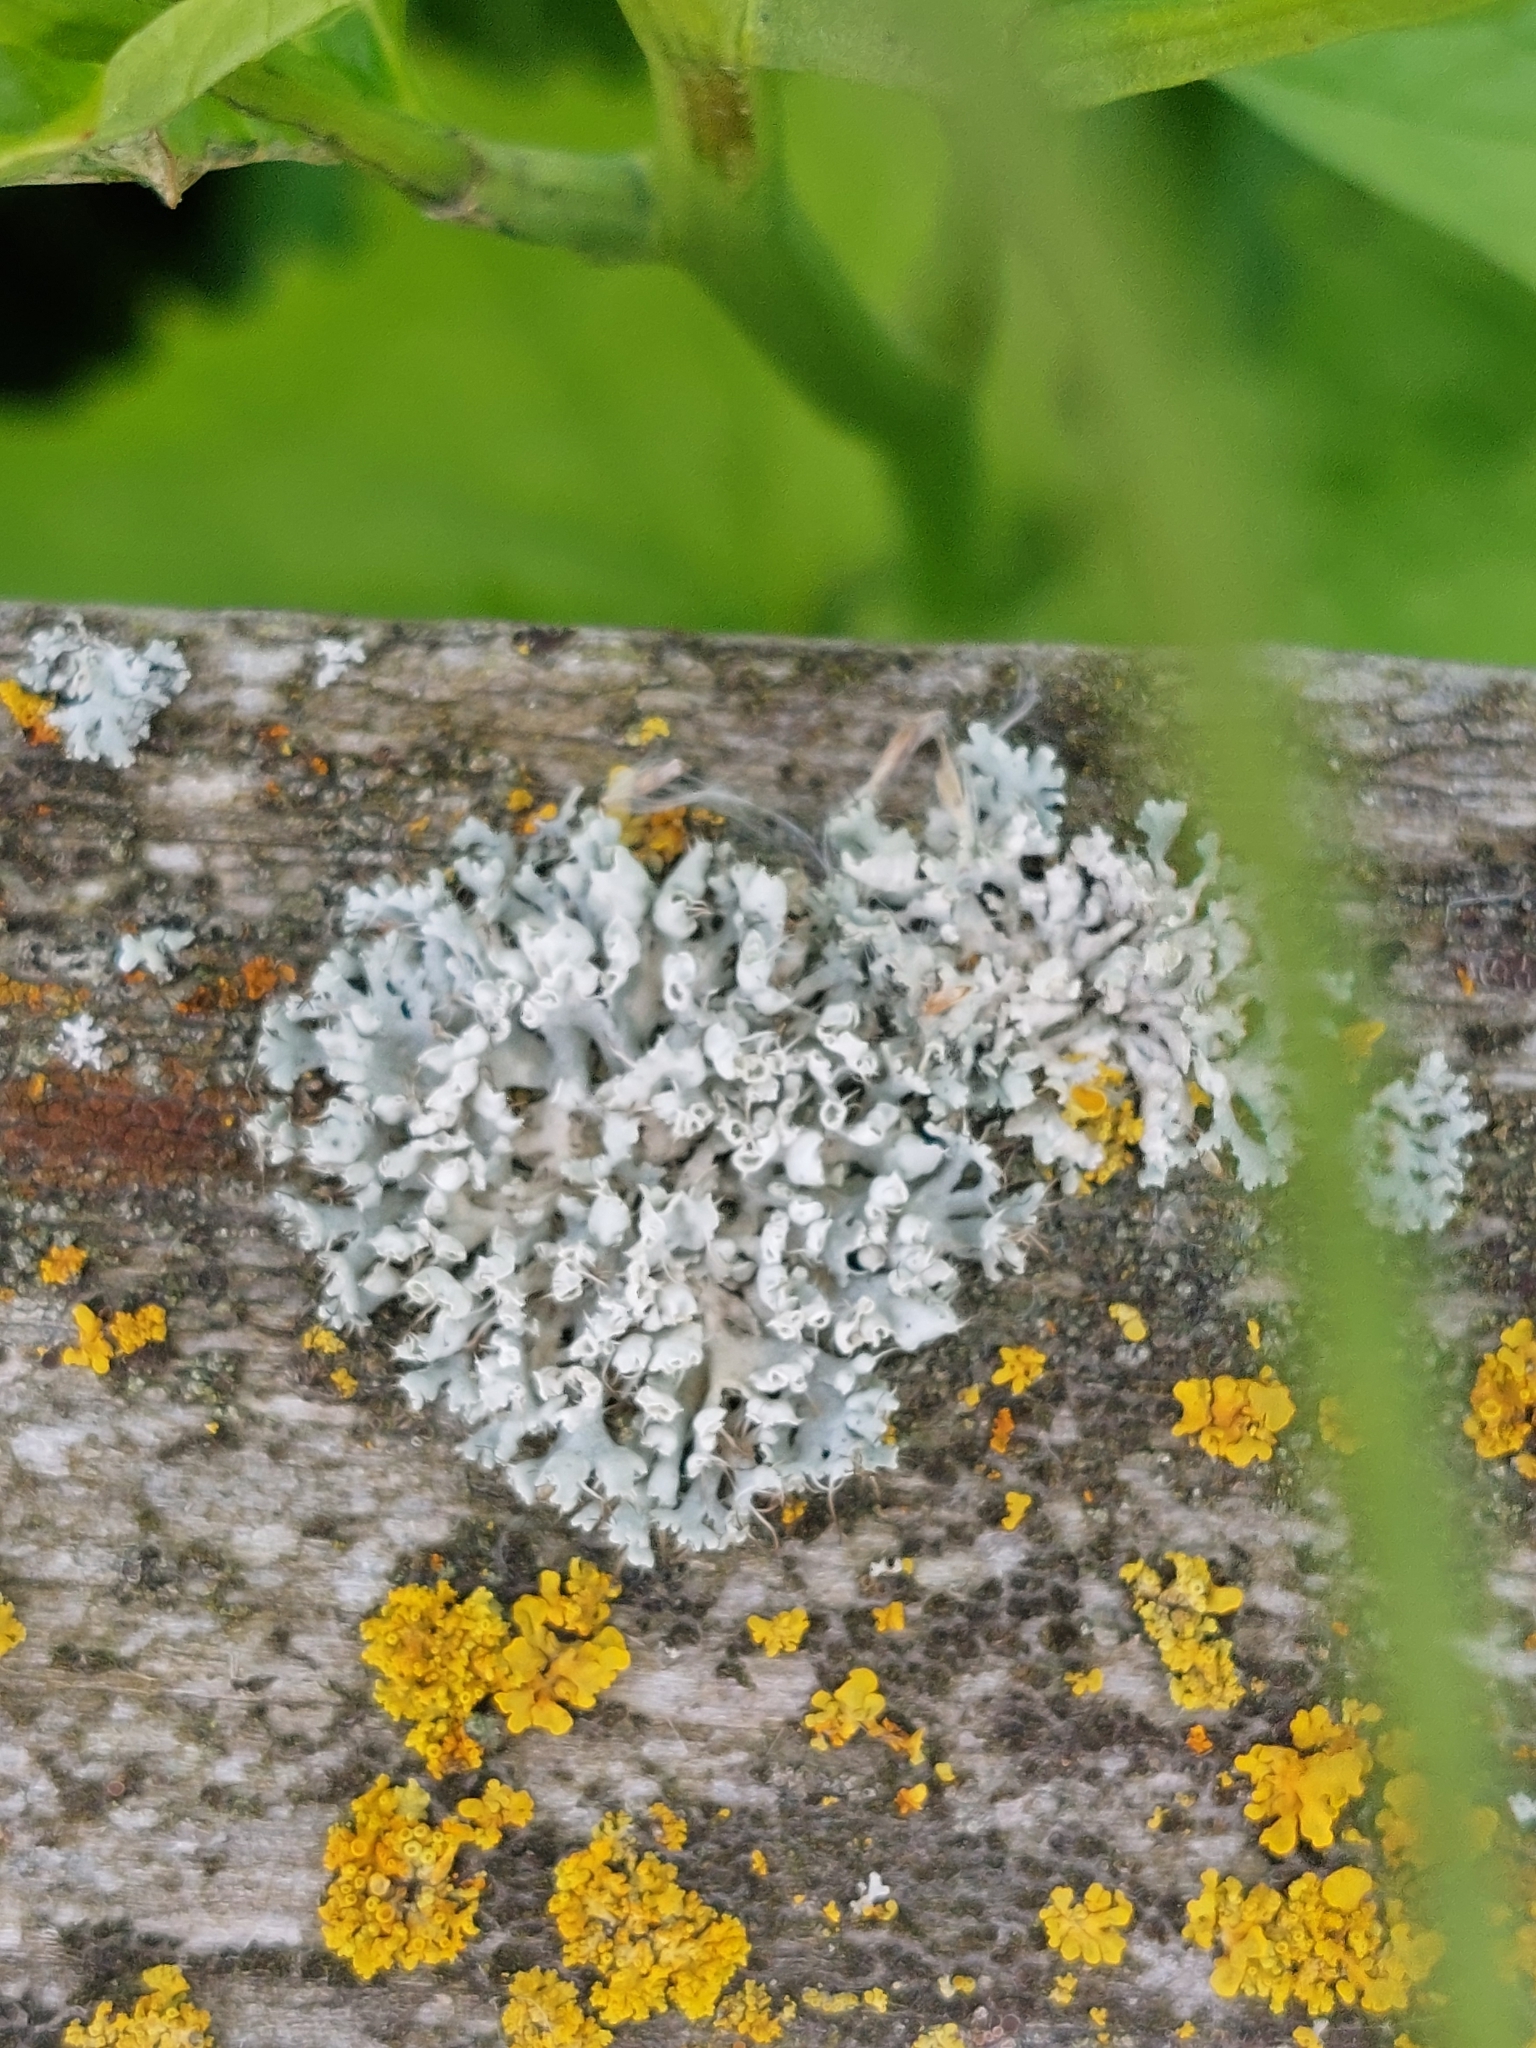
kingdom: Fungi
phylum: Ascomycota
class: Lecanoromycetes
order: Caliciales
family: Physciaceae
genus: Physcia
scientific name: Physcia adscendens
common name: Hooded rosette lichen
